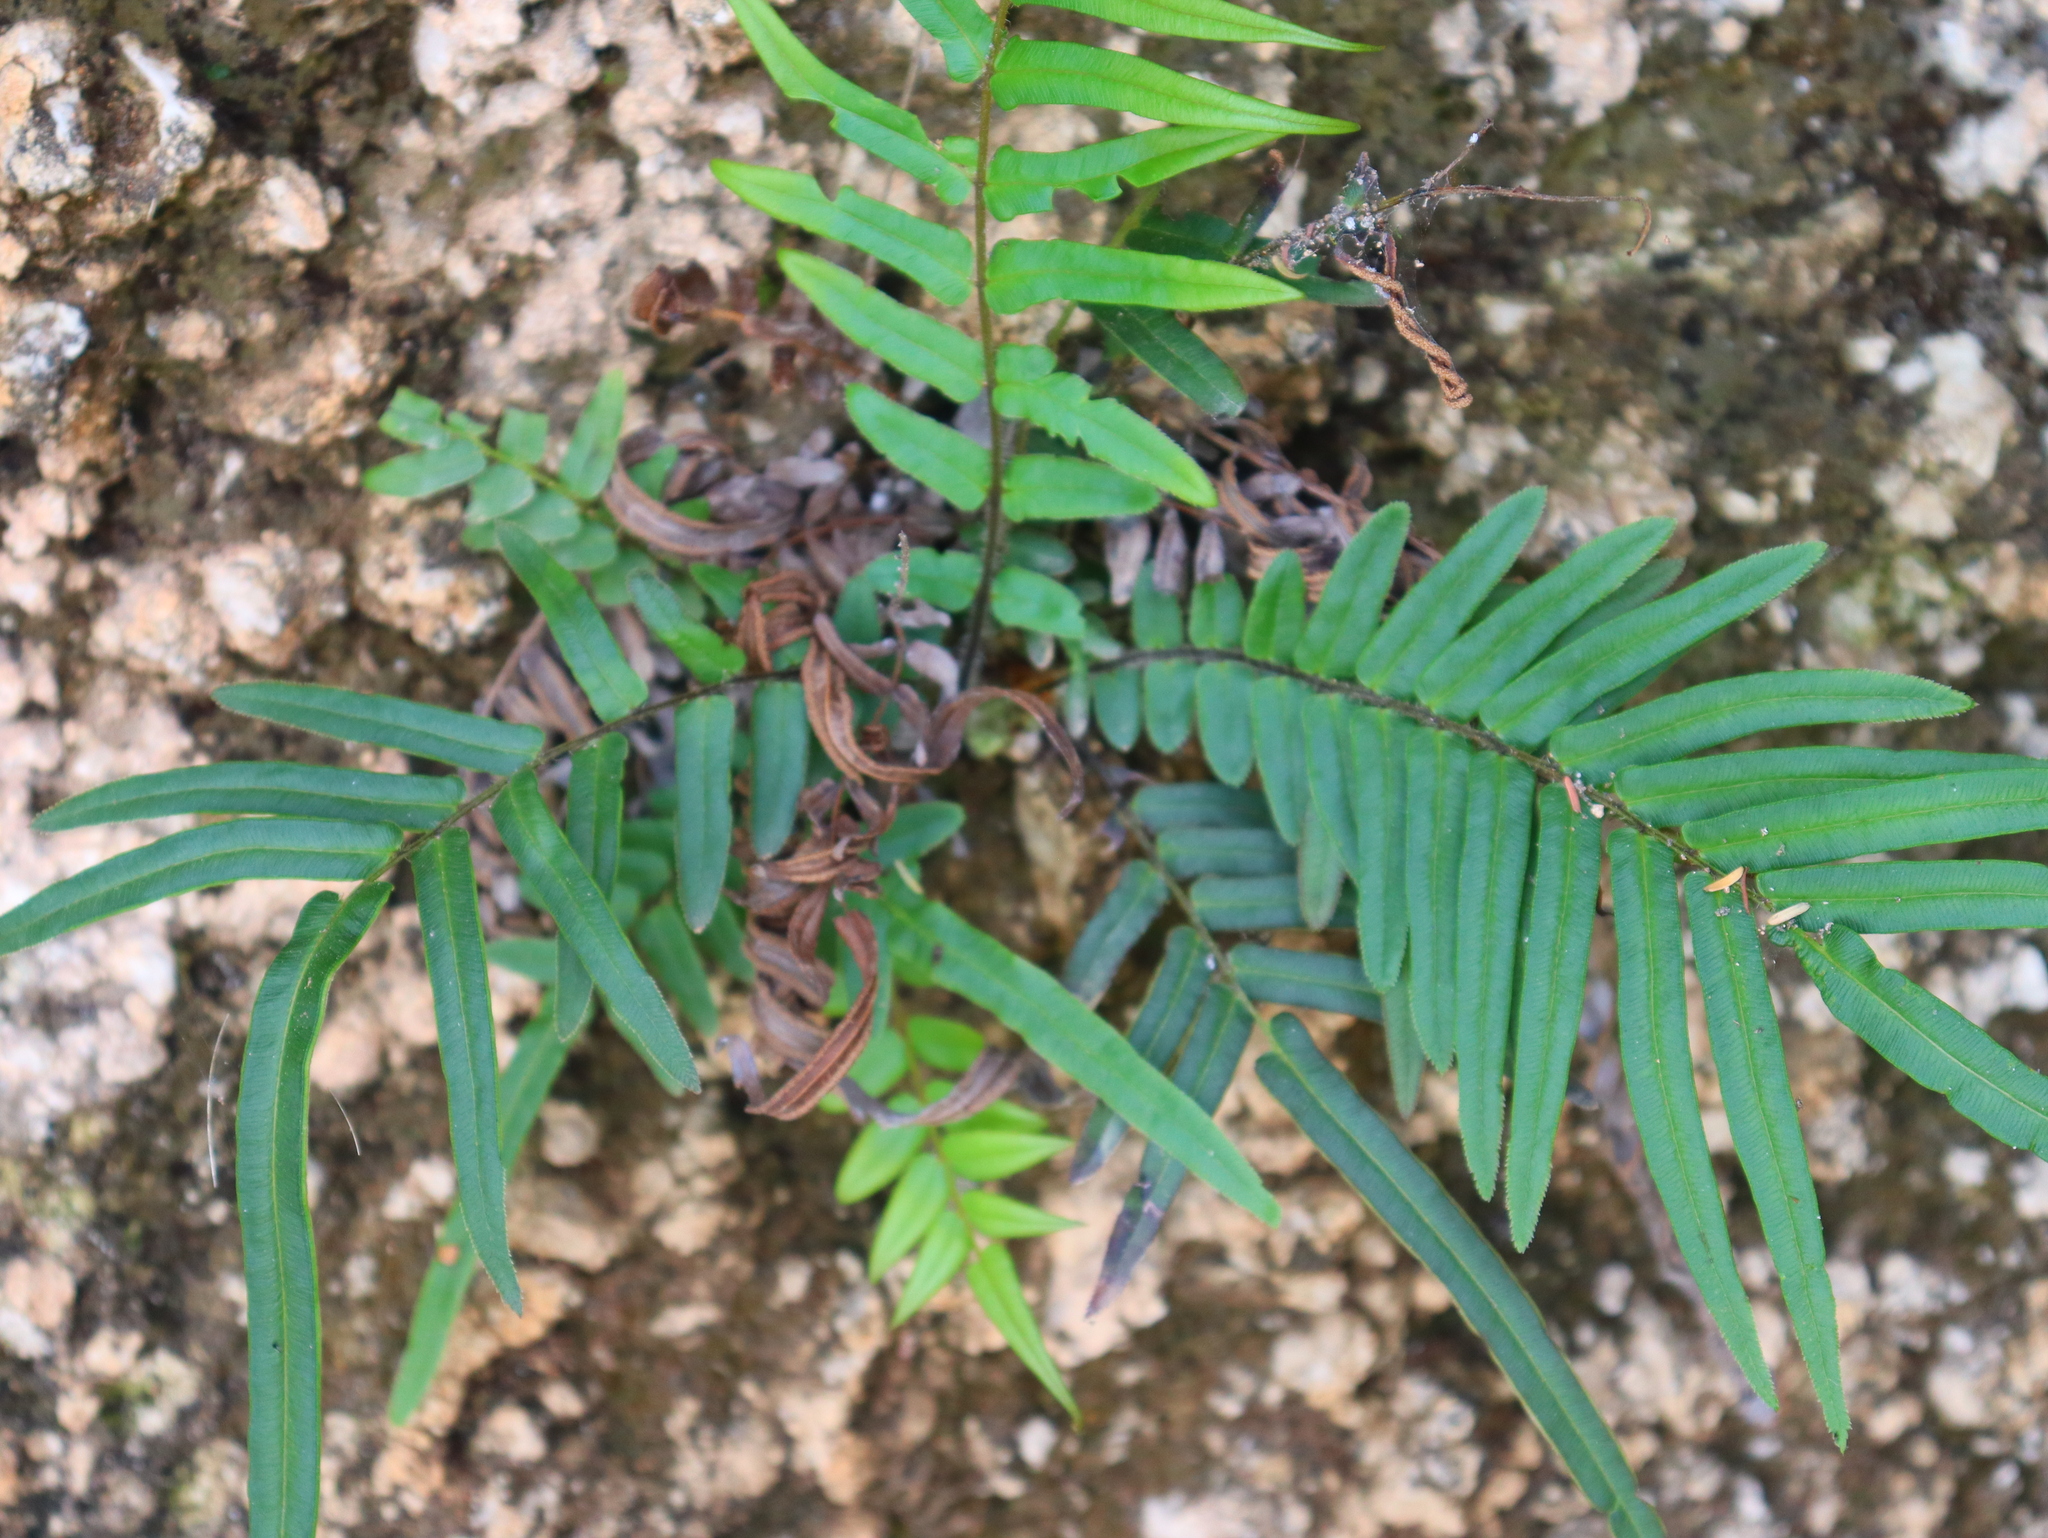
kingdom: Plantae
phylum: Tracheophyta
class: Polypodiopsida
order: Polypodiales
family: Pteridaceae
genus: Pteris
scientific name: Pteris vittata
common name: Ladder brake
